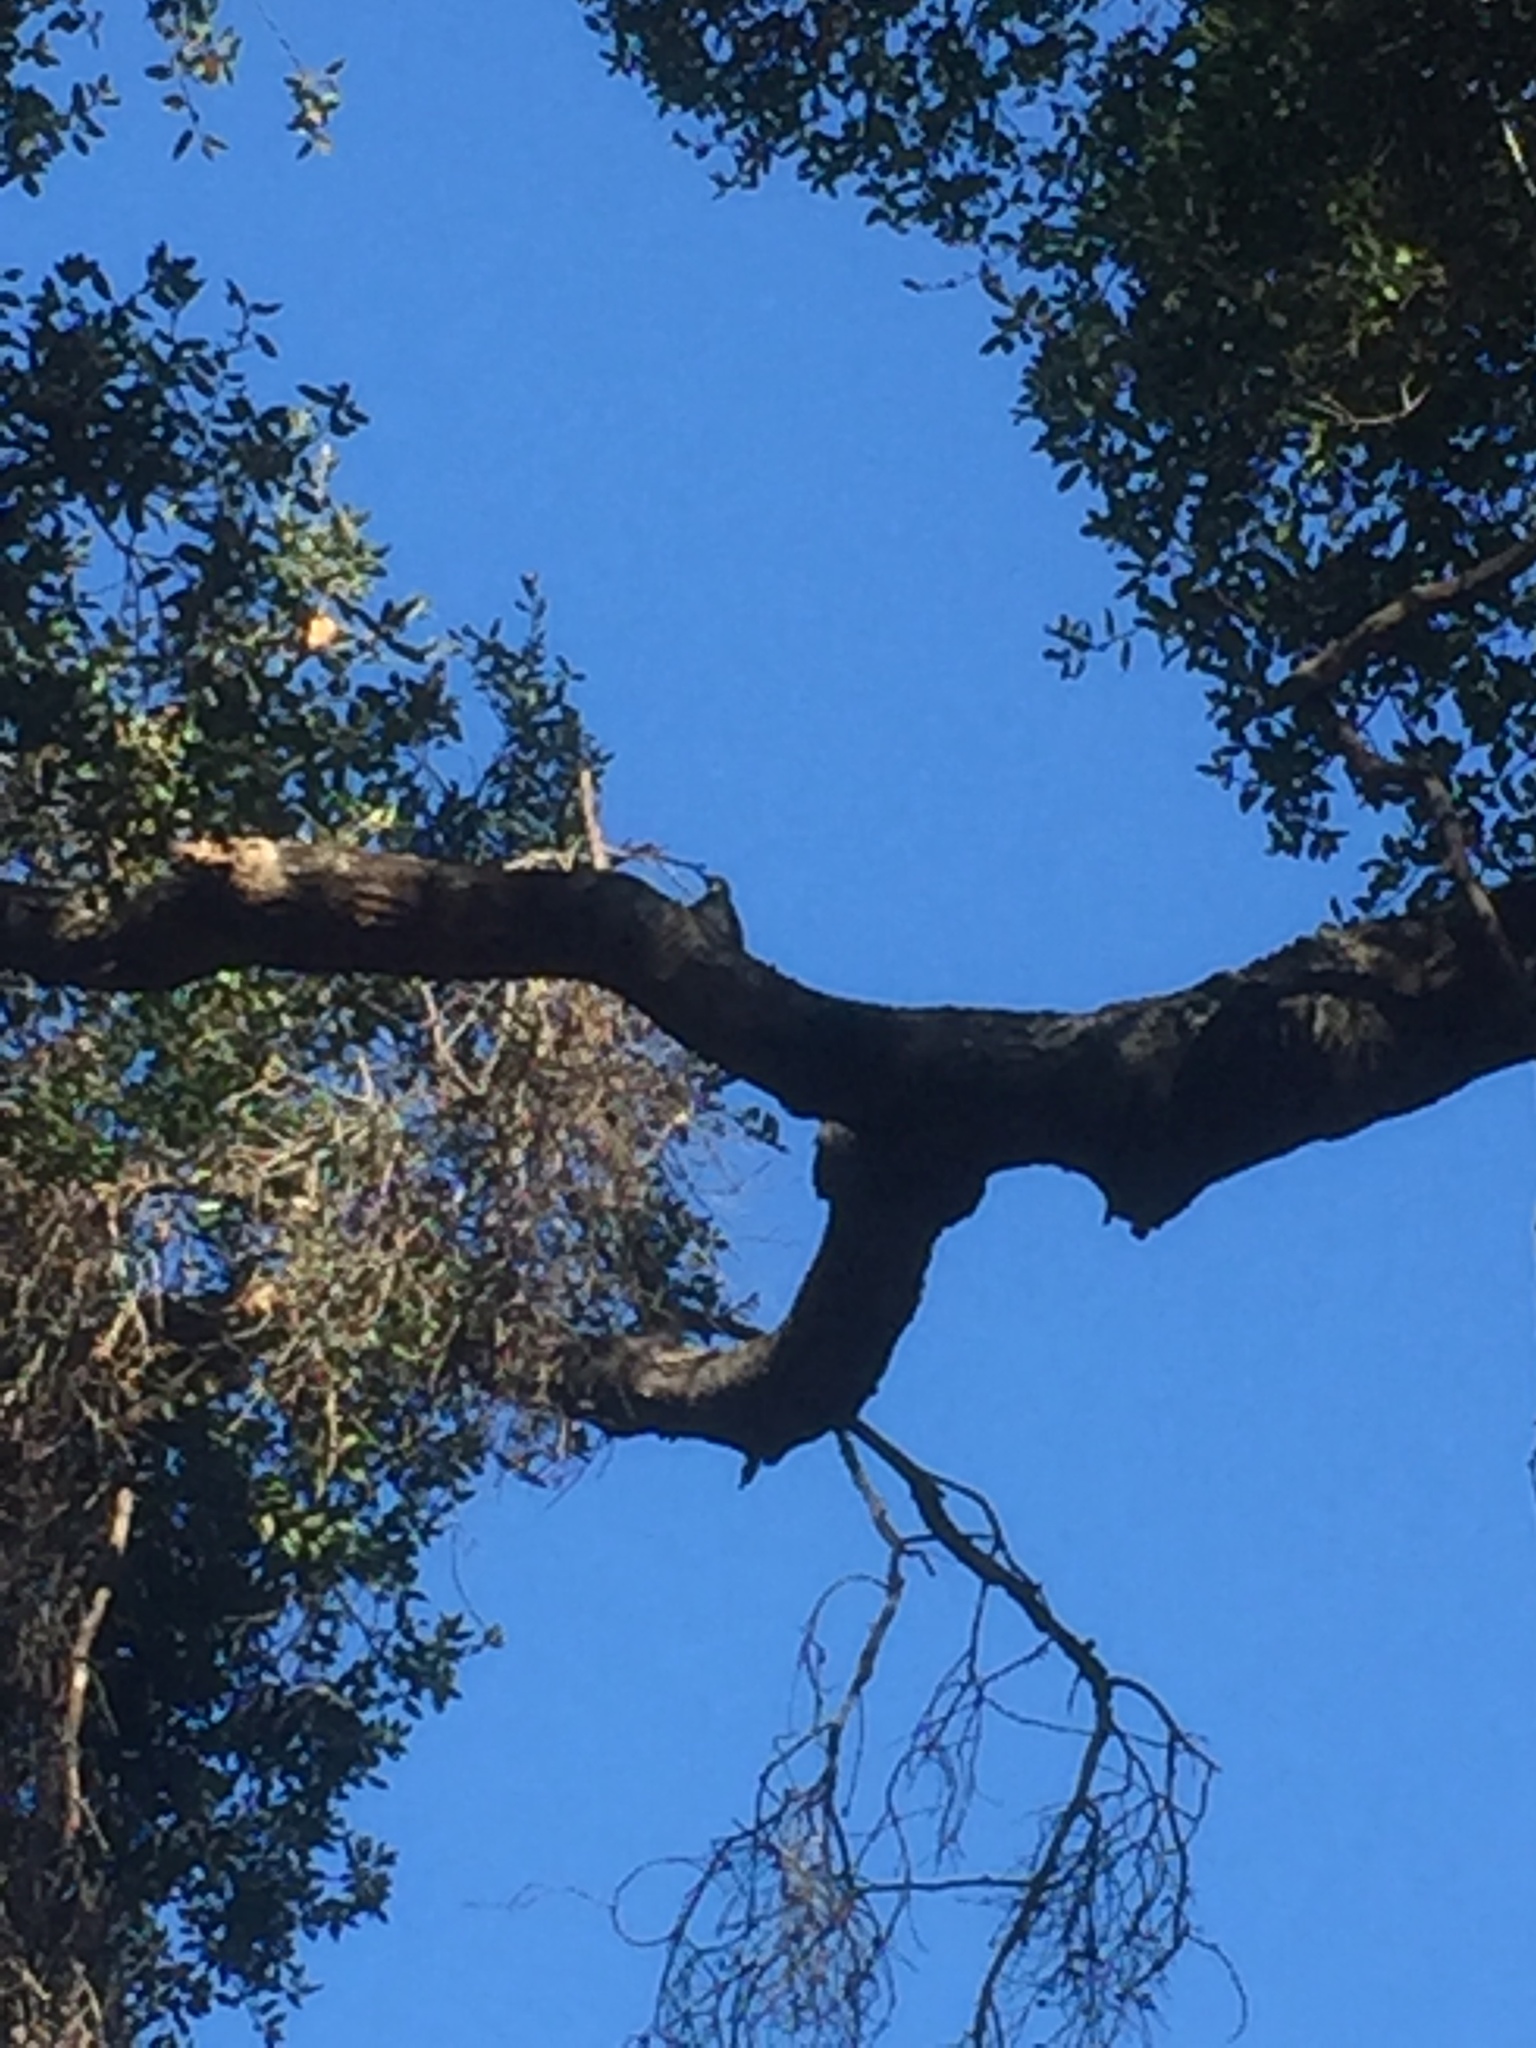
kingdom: Animalia
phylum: Chordata
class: Aves
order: Piciformes
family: Picidae
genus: Melanerpes
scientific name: Melanerpes formicivorus
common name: Acorn woodpecker
